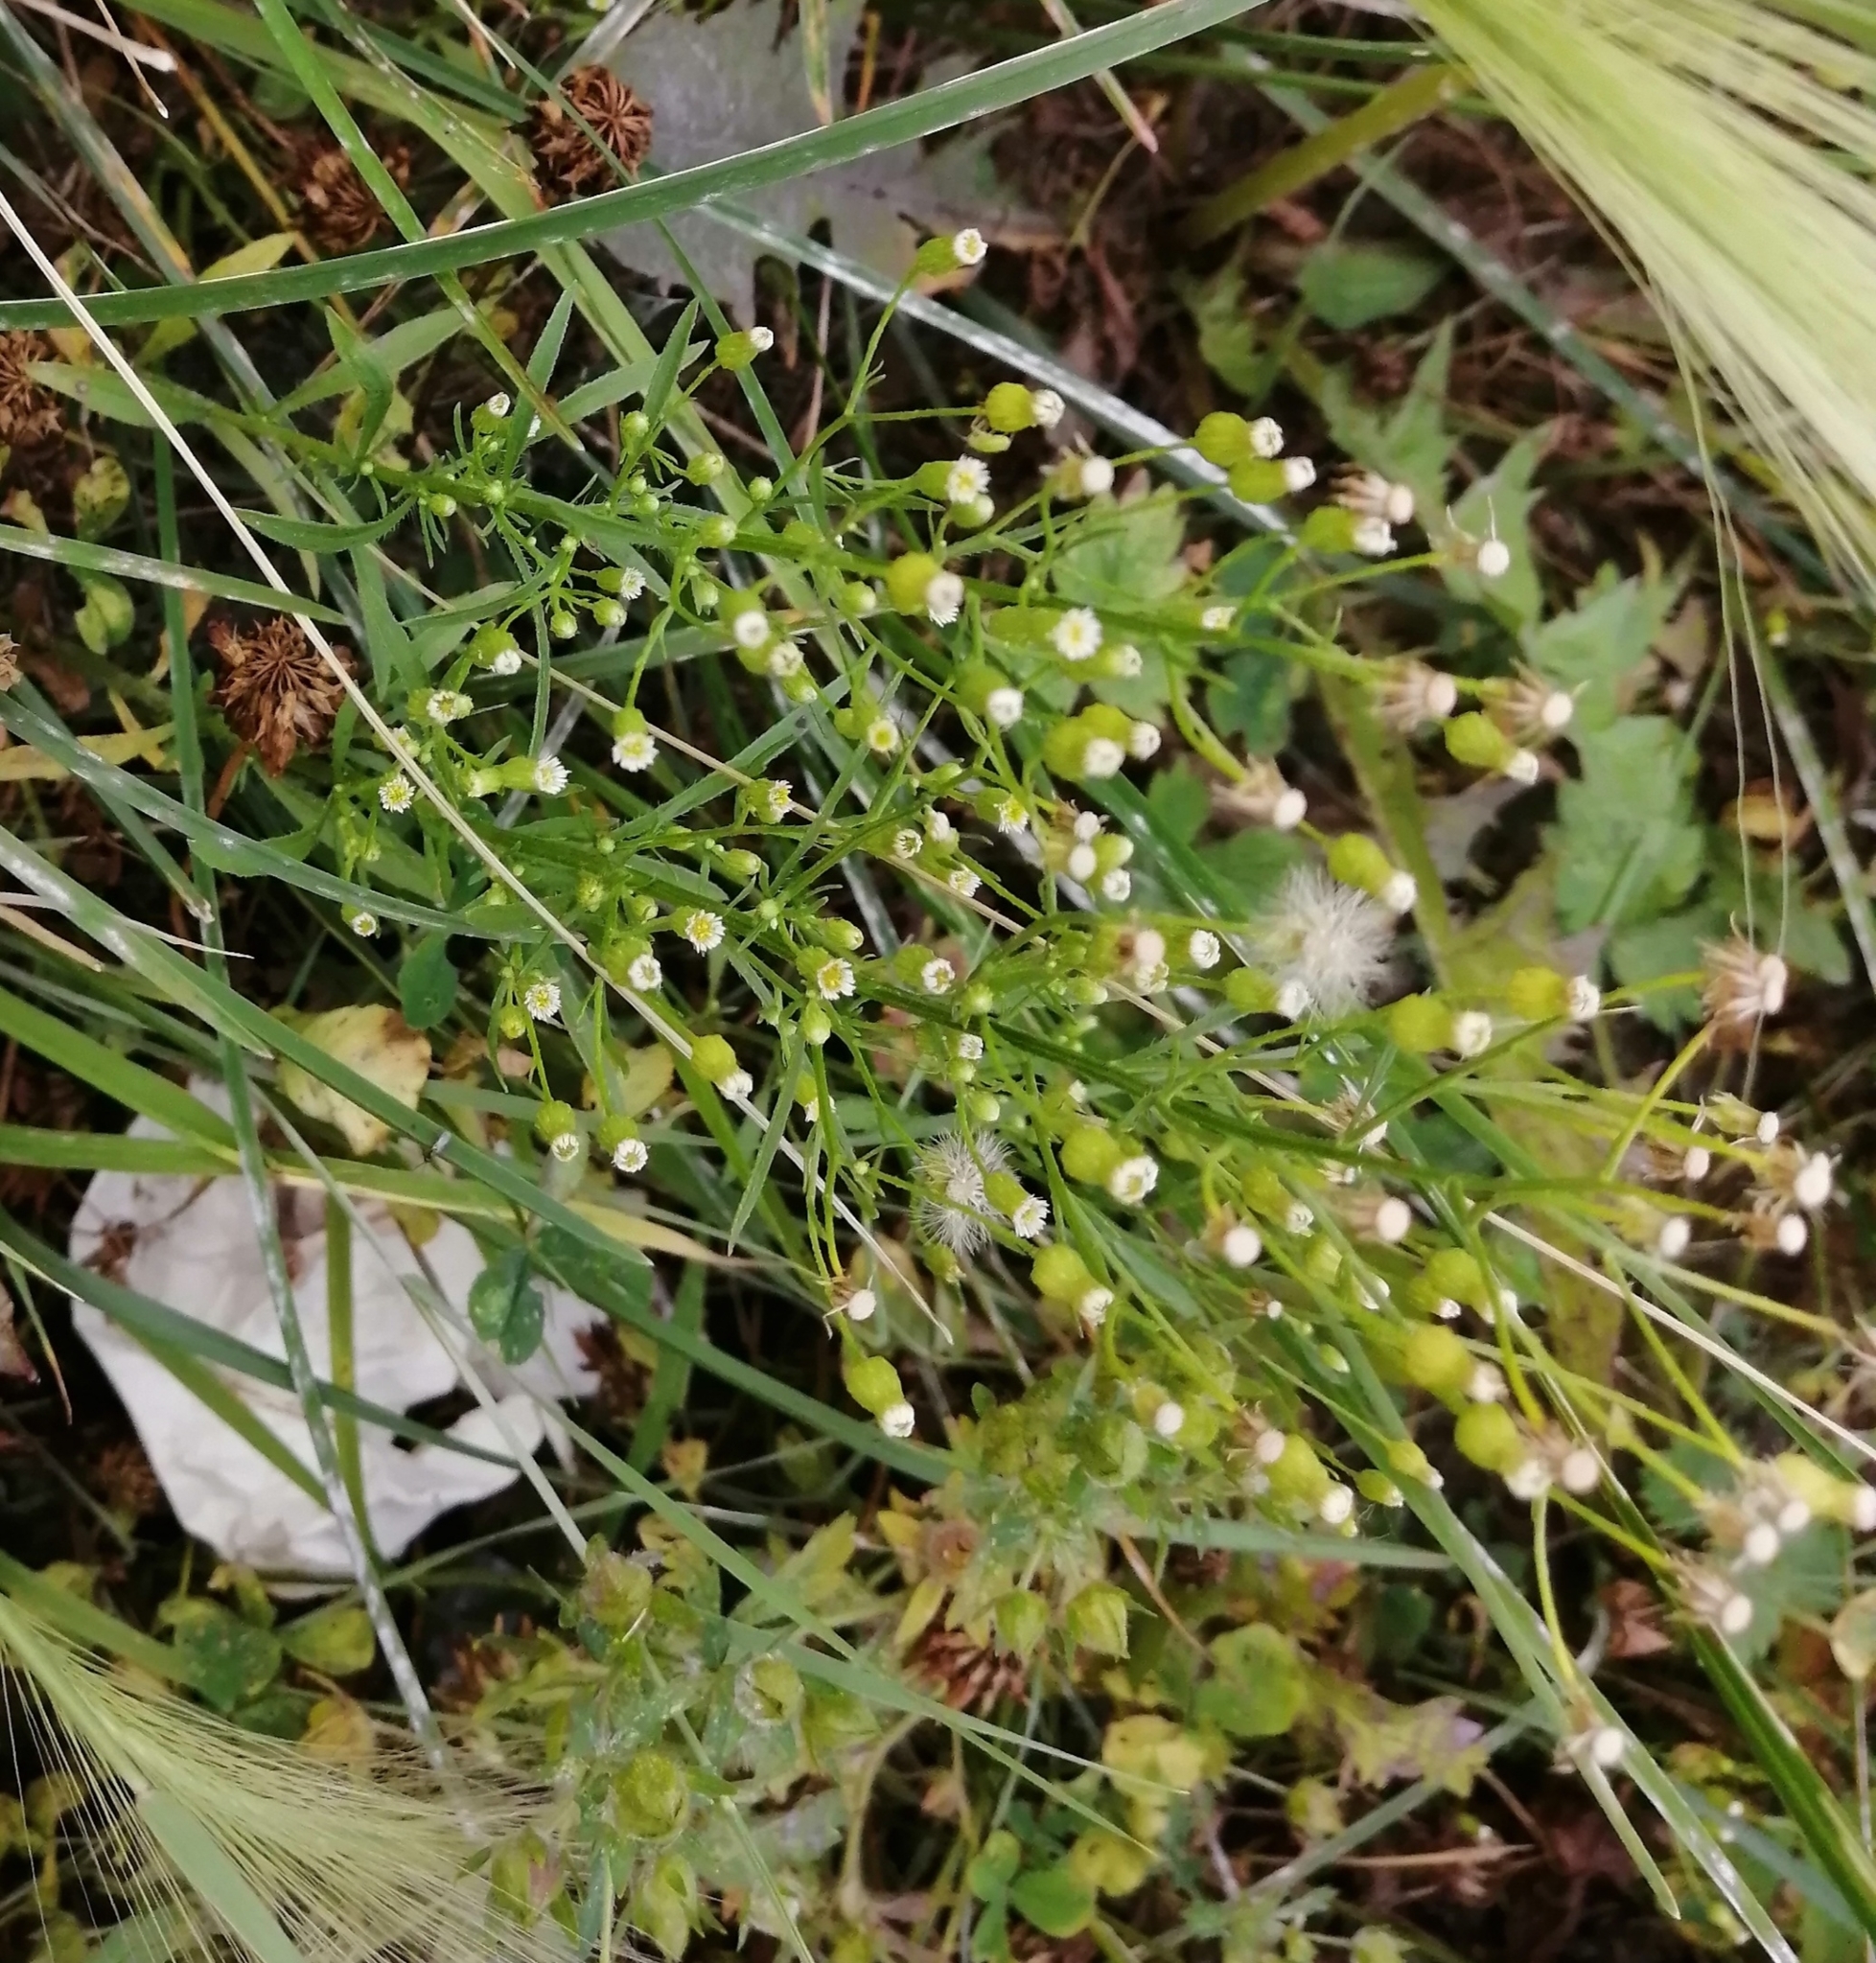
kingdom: Plantae
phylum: Tracheophyta
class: Magnoliopsida
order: Asterales
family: Asteraceae
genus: Erigeron
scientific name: Erigeron canadensis
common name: Canadian fleabane
